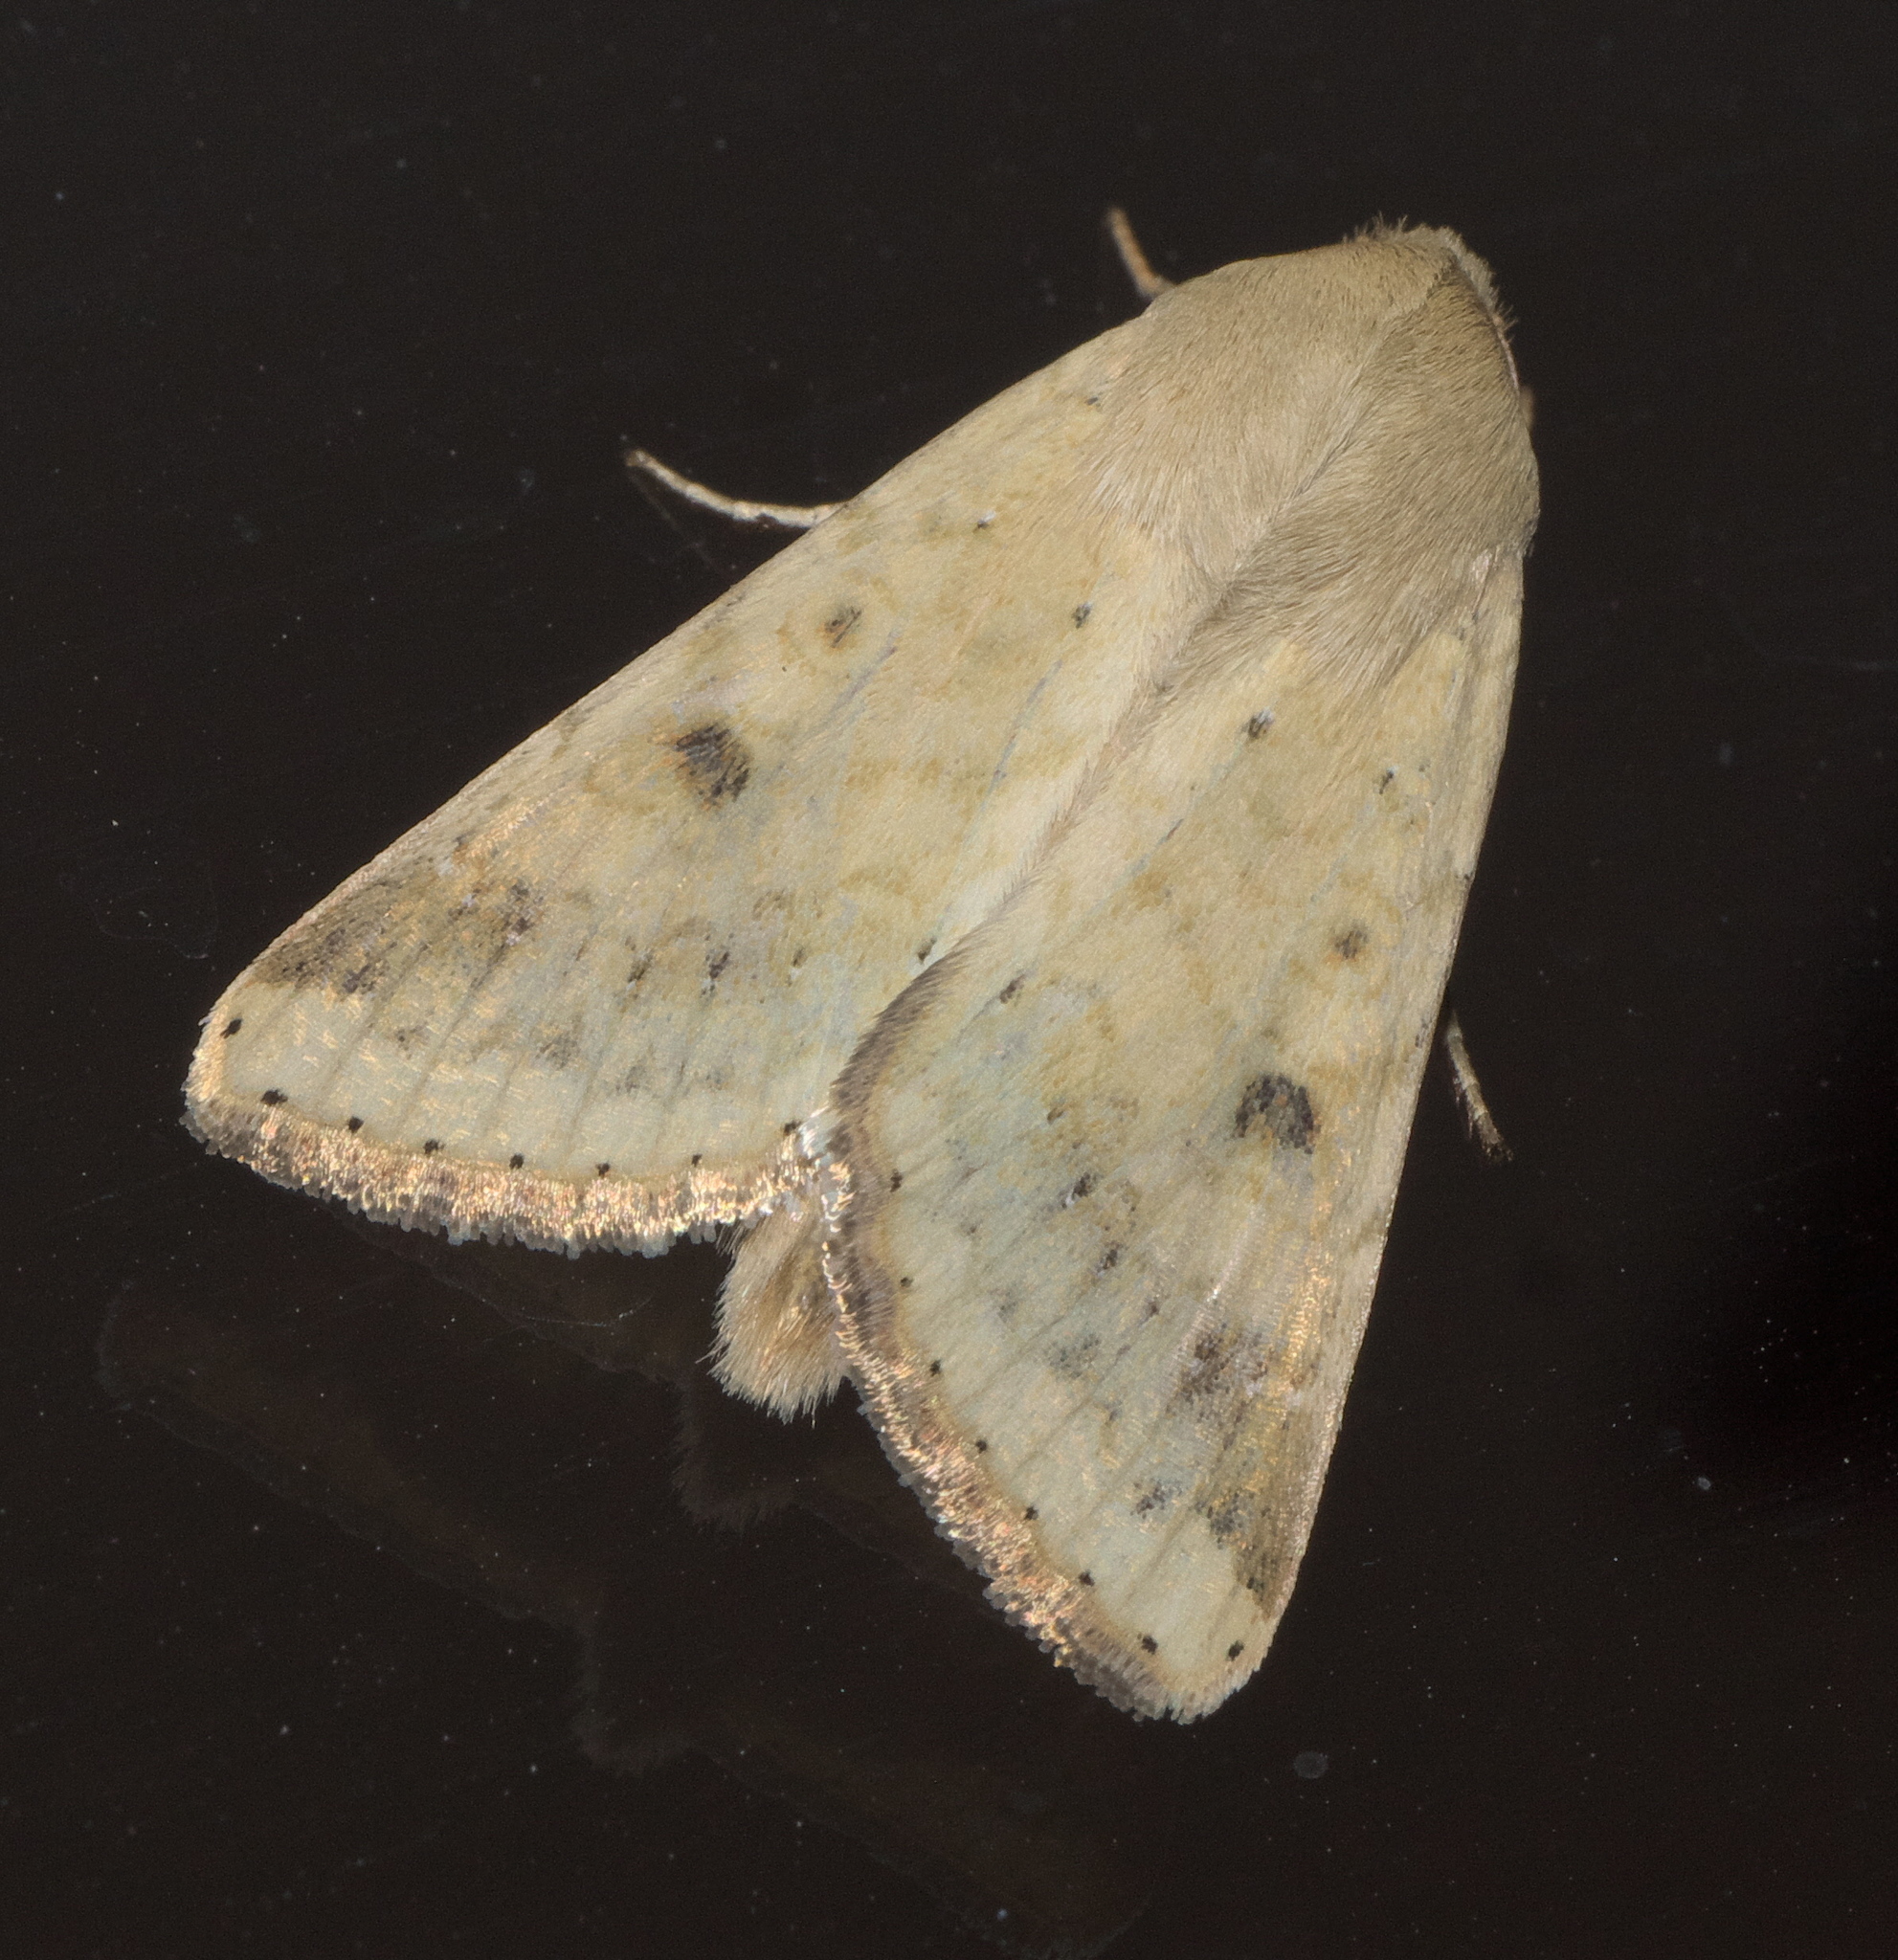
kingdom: Animalia
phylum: Arthropoda
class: Insecta
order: Lepidoptera
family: Noctuidae
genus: Helicoverpa
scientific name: Helicoverpa zea
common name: Bollworm
